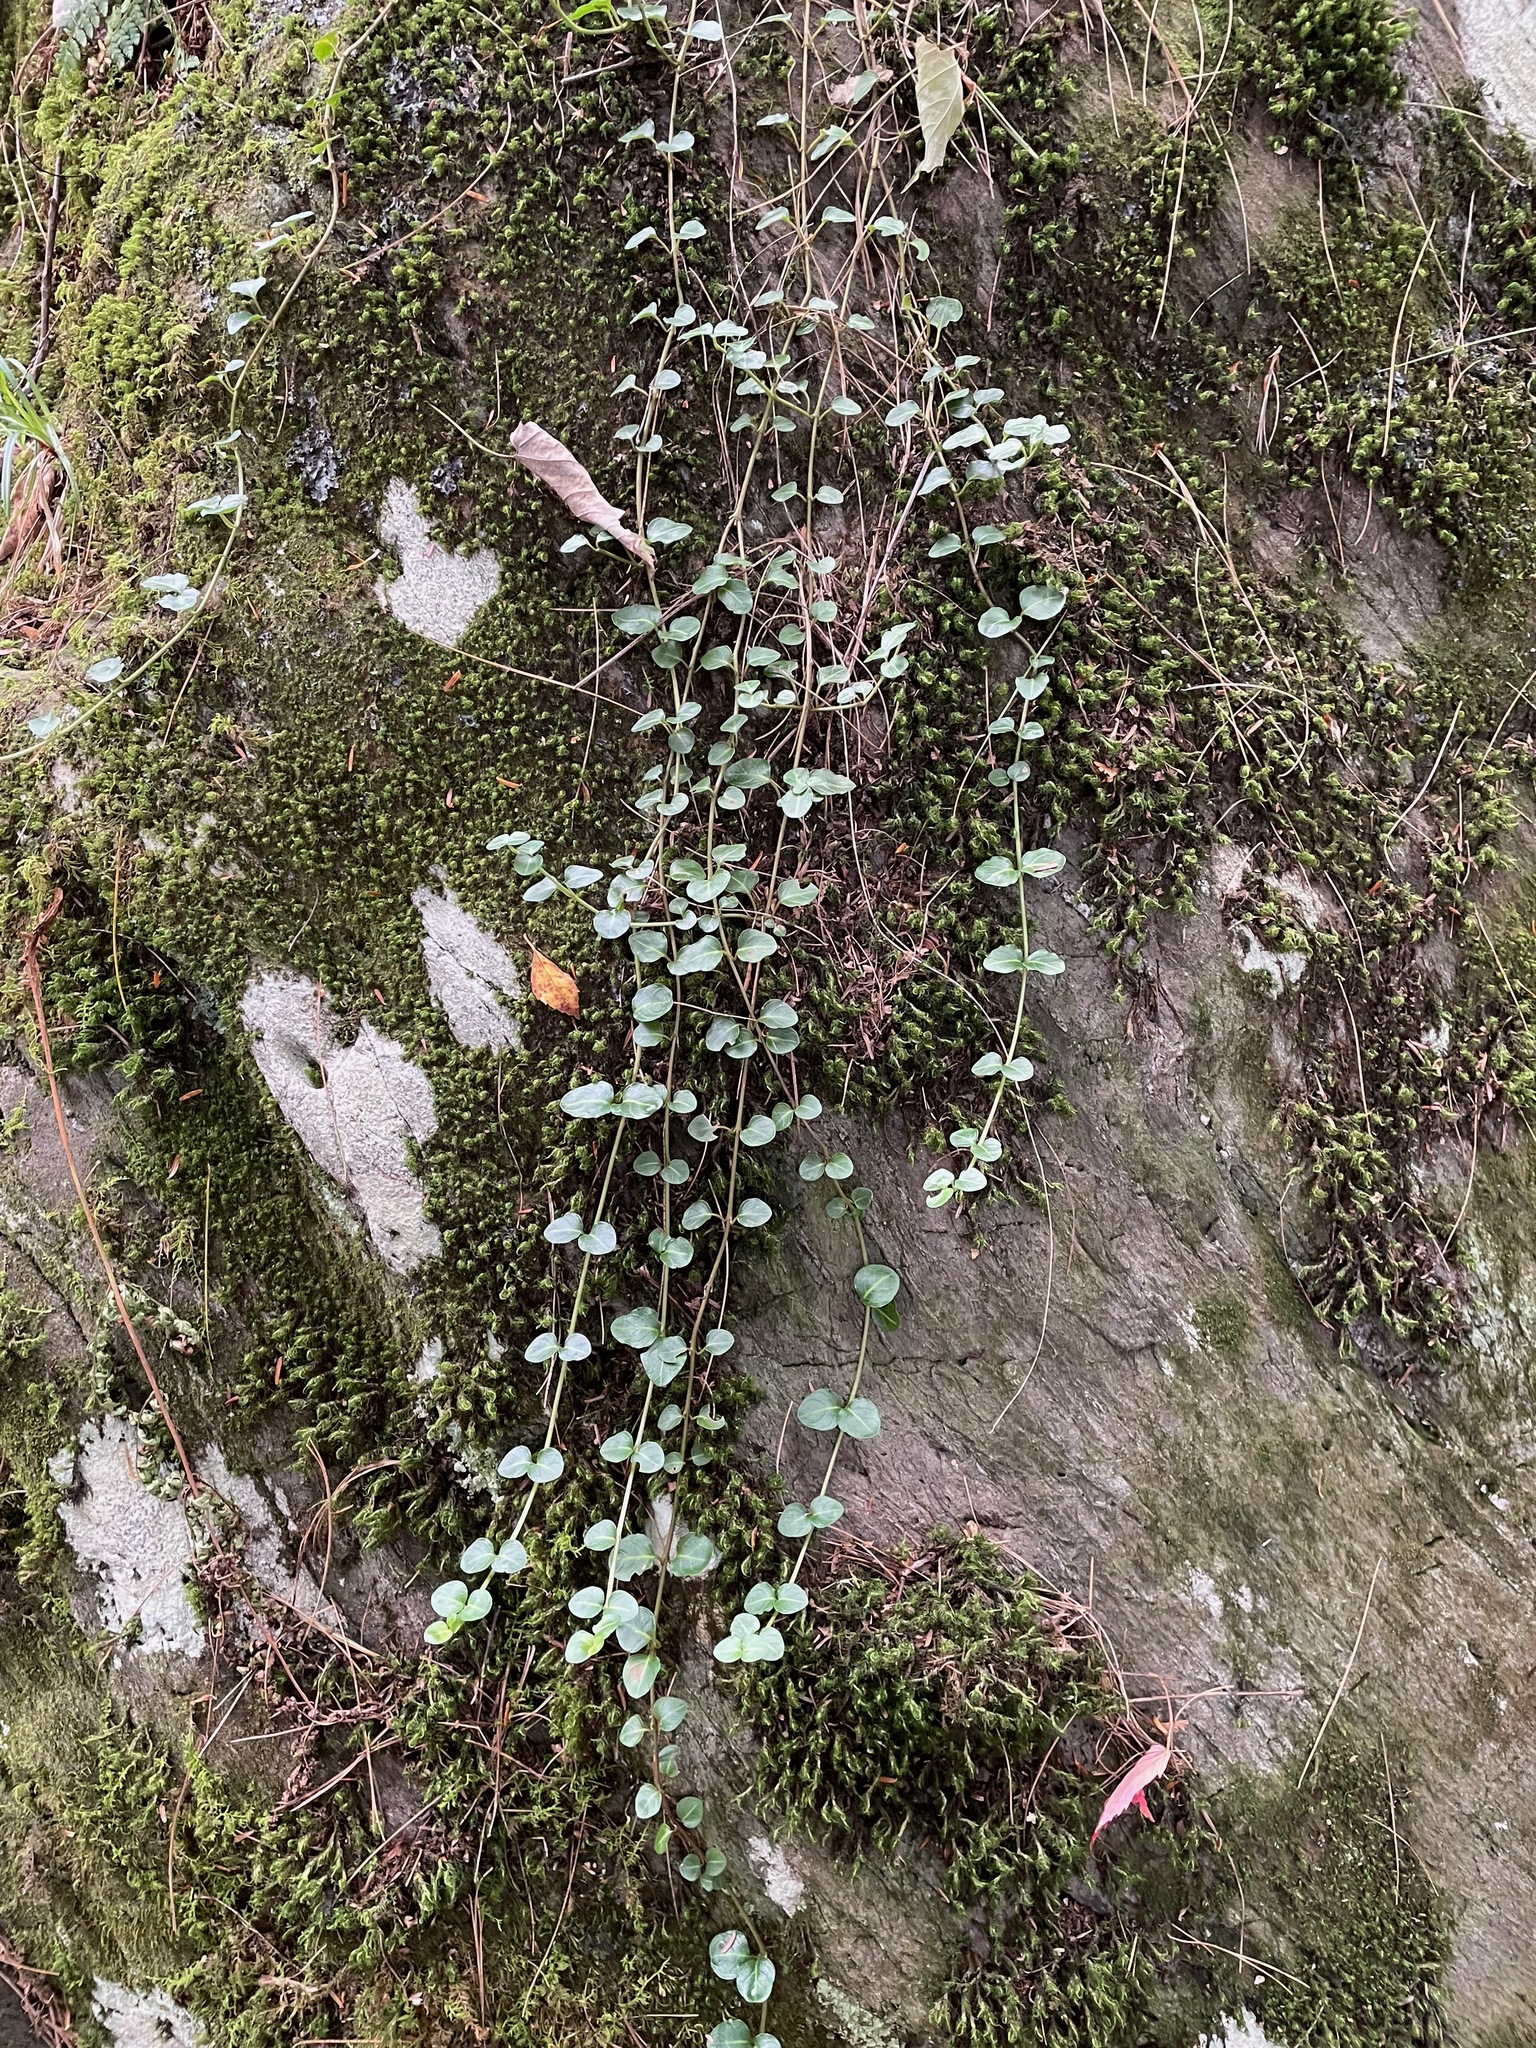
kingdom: Plantae
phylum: Tracheophyta
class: Magnoliopsida
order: Gentianales
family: Rubiaceae
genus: Mitchella
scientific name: Mitchella repens
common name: Partridge-berry
